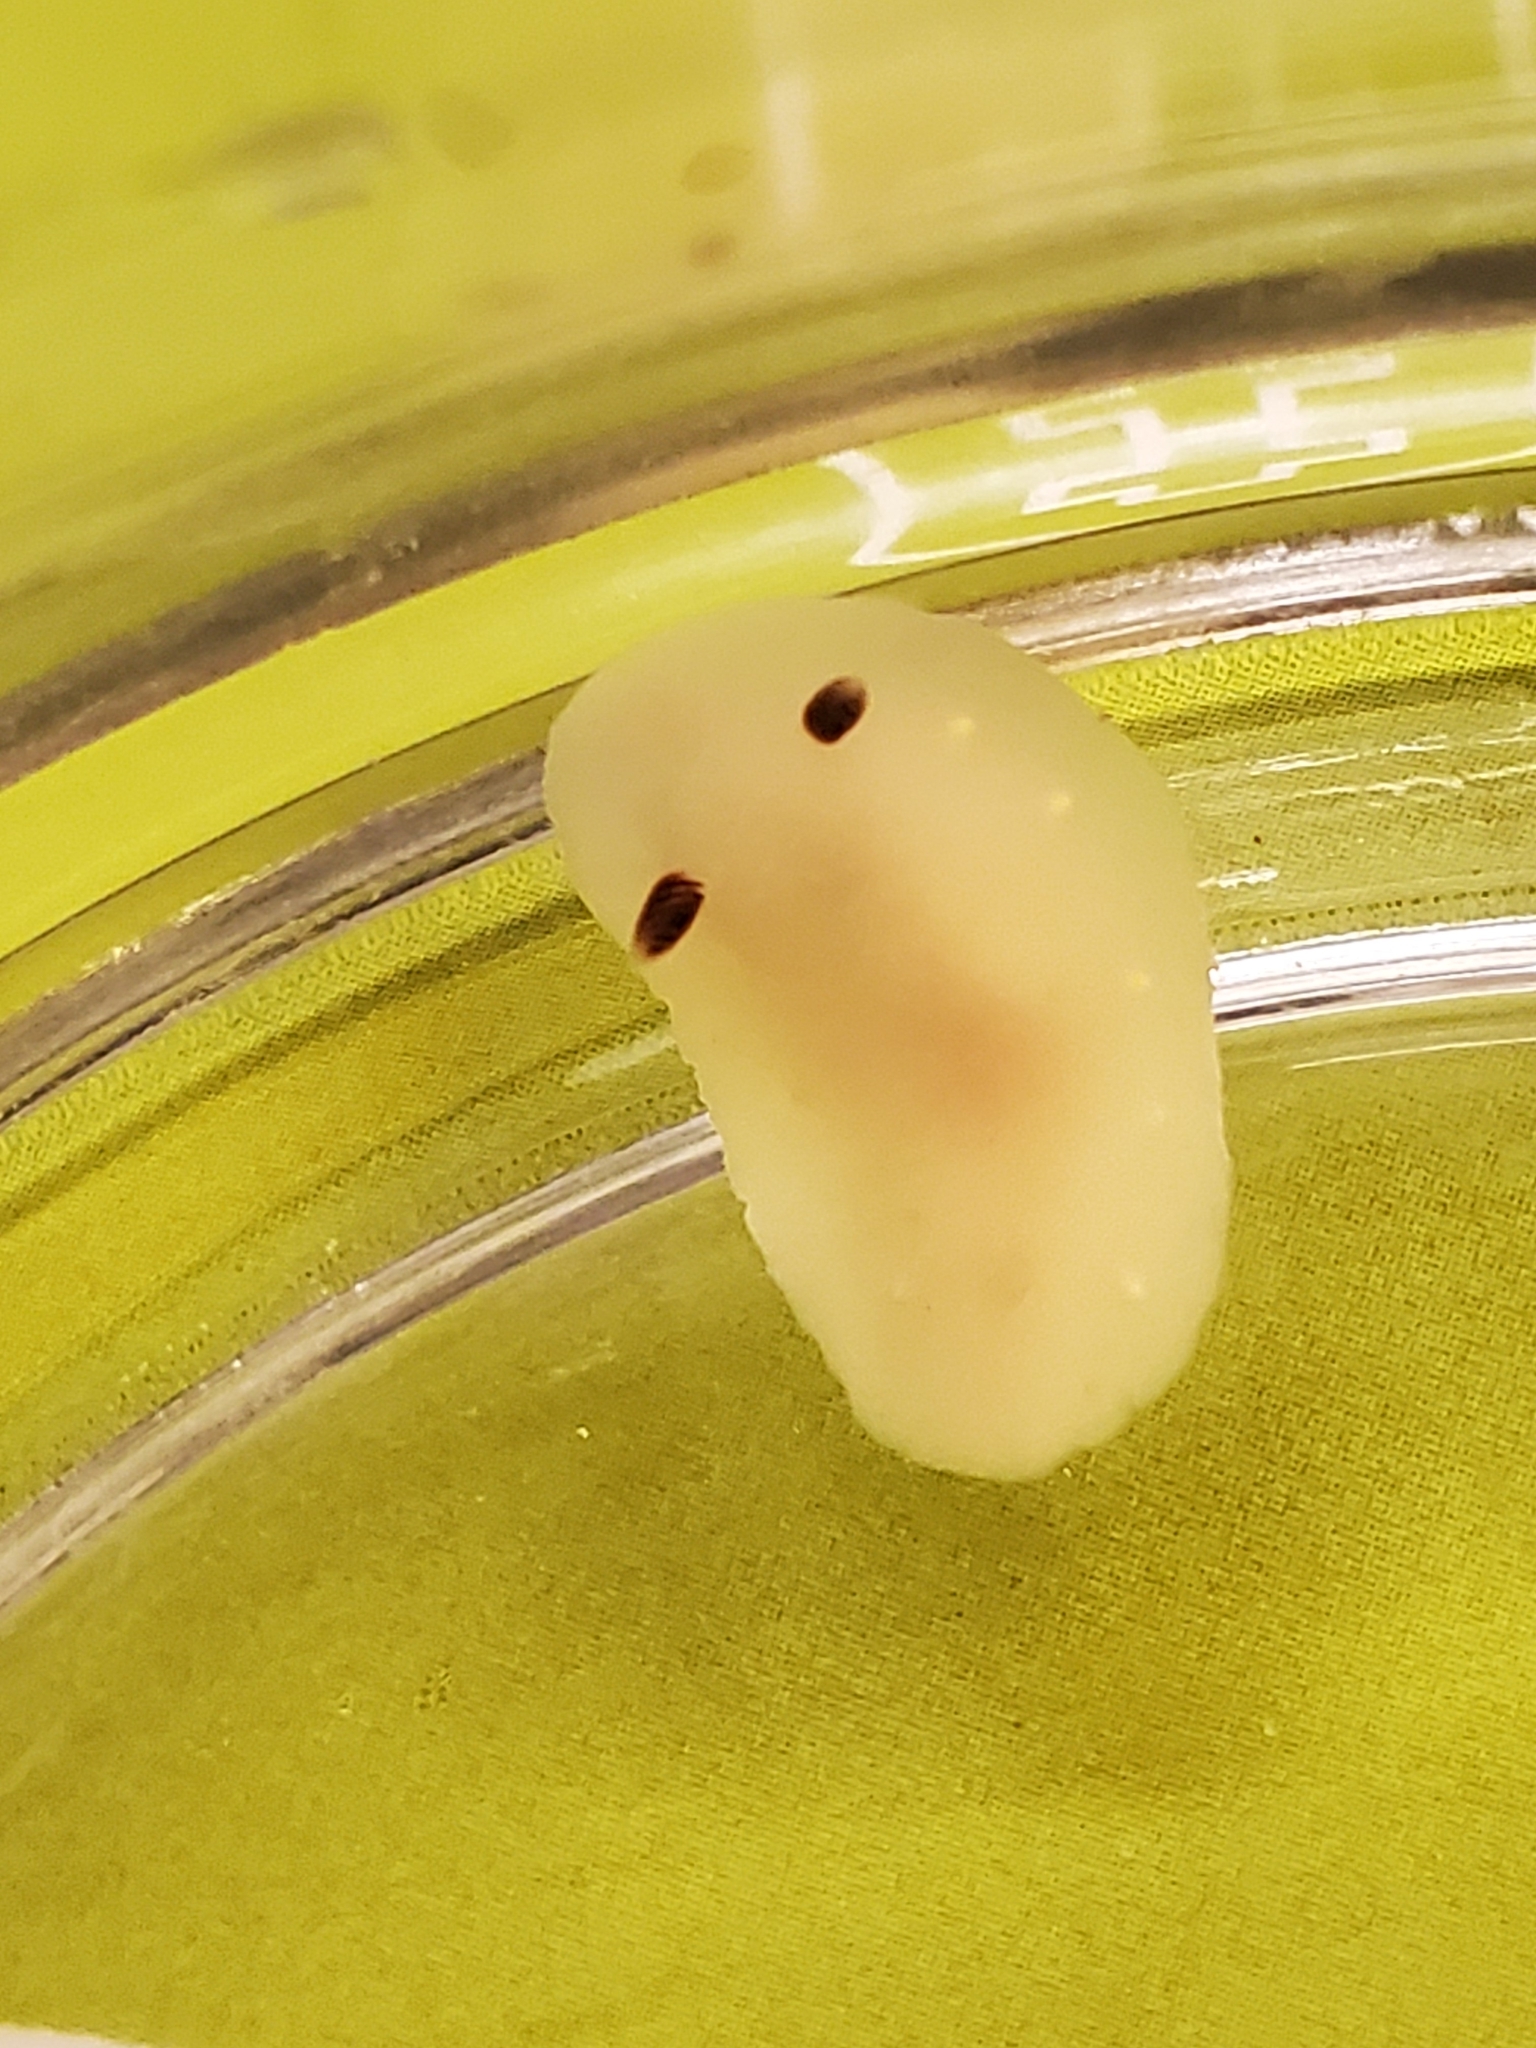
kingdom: Animalia
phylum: Mollusca
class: Gastropoda
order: Nudibranchia
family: Cadlinidae
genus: Cadlina
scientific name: Cadlina flavomaculata
